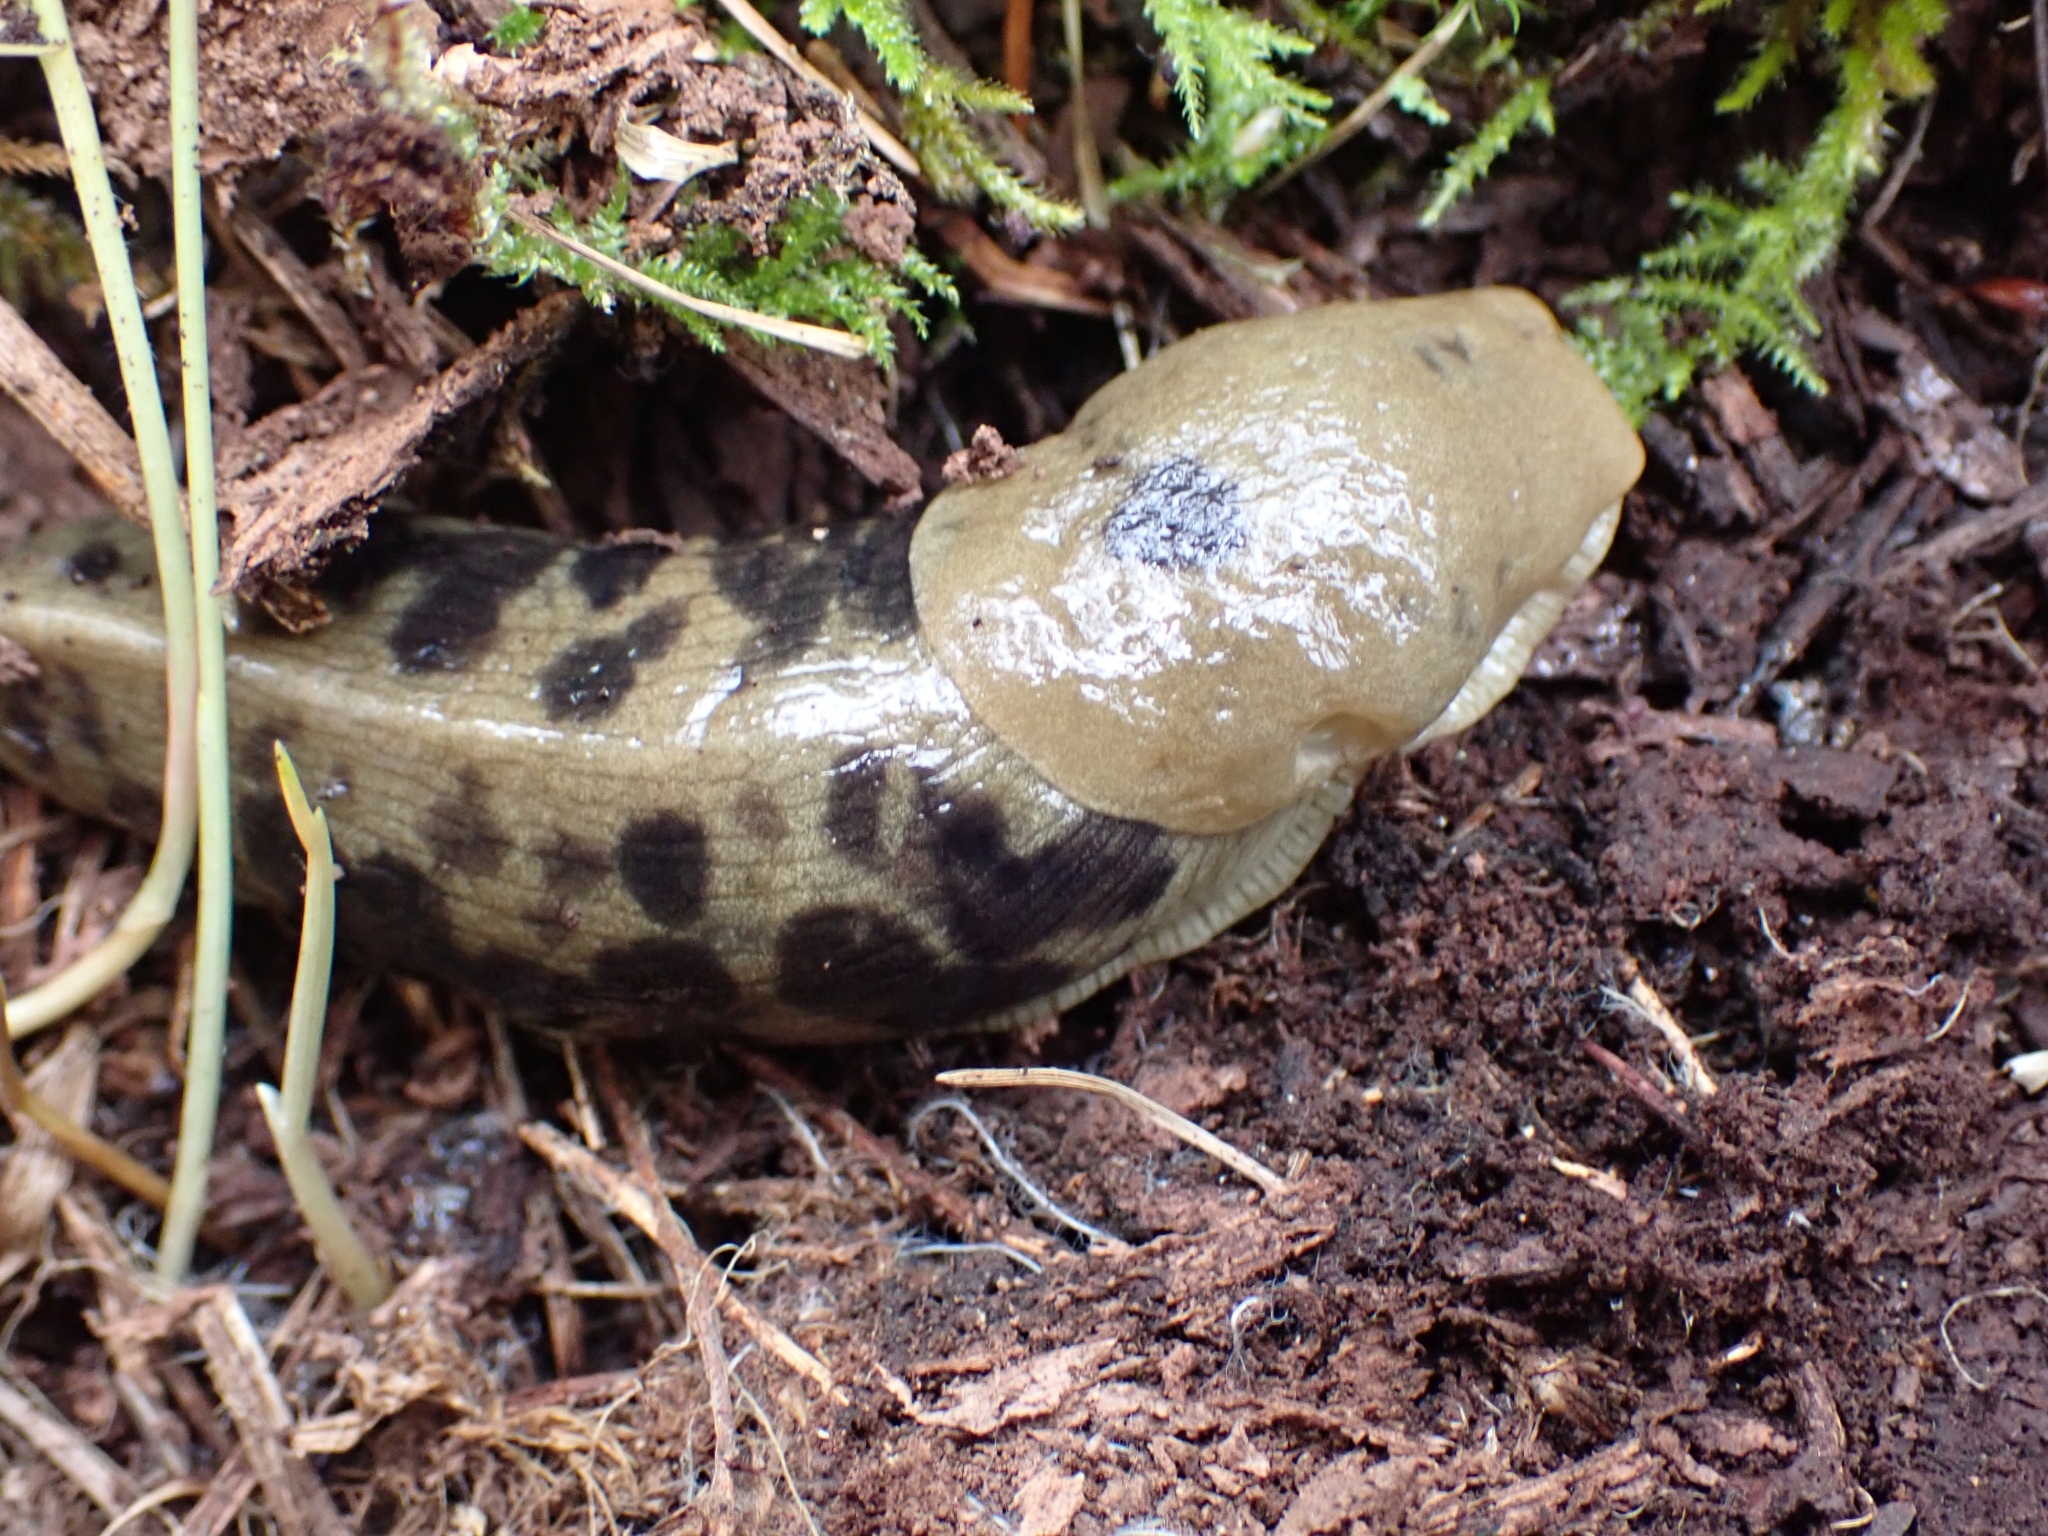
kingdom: Animalia
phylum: Mollusca
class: Gastropoda
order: Stylommatophora
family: Ariolimacidae
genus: Ariolimax
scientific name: Ariolimax columbianus
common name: Pacific banana slug
